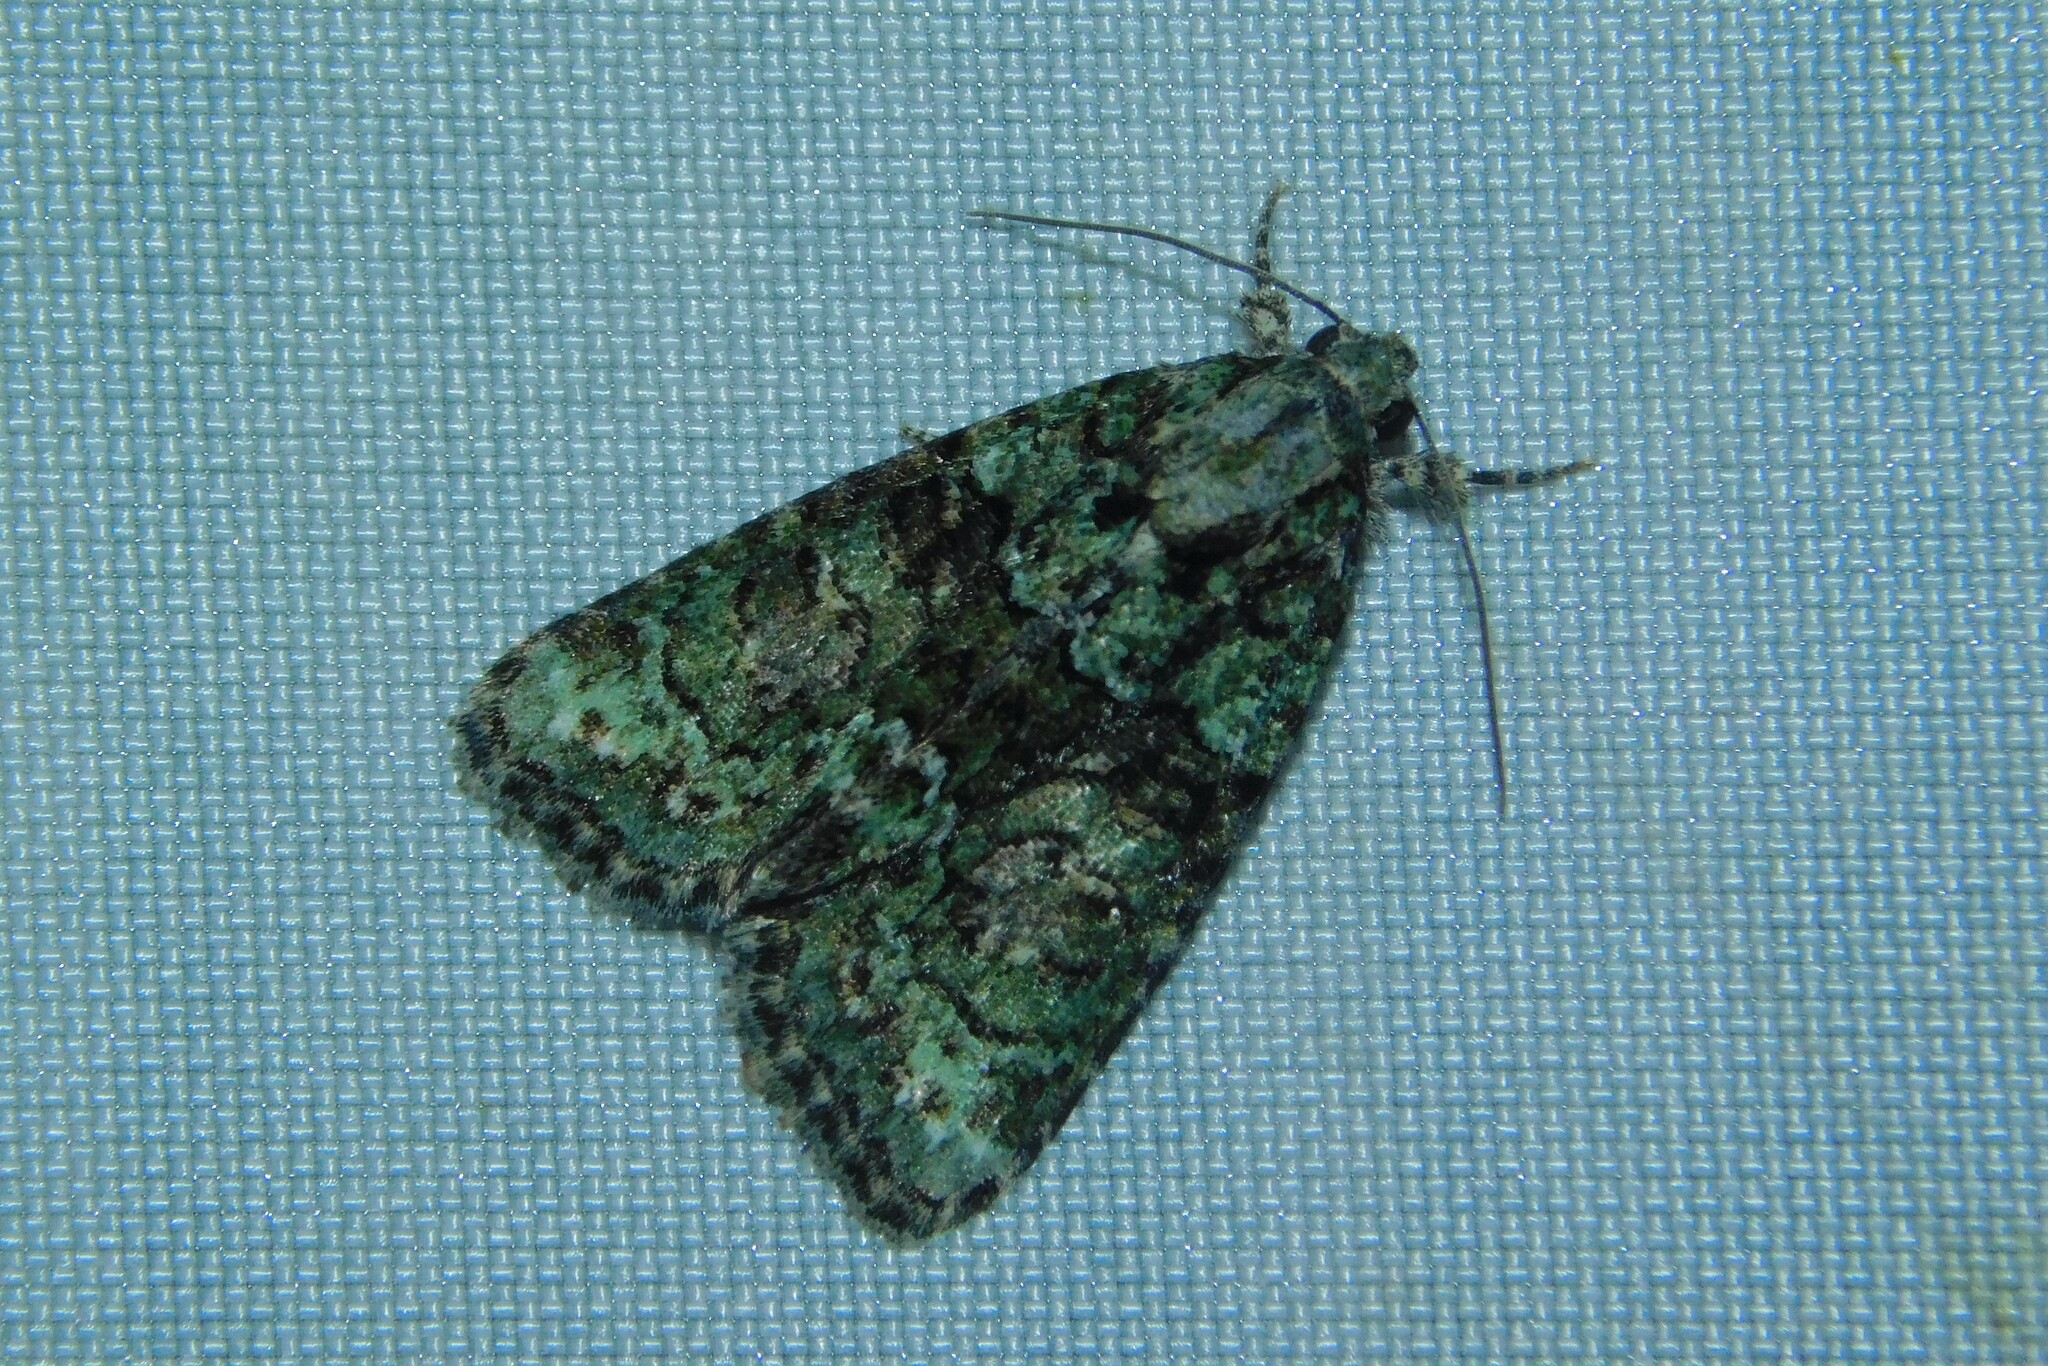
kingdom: Animalia
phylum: Arthropoda
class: Insecta
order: Lepidoptera
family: Noctuidae
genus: Cryphia
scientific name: Cryphia algae
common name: Tree-lichen beauty
